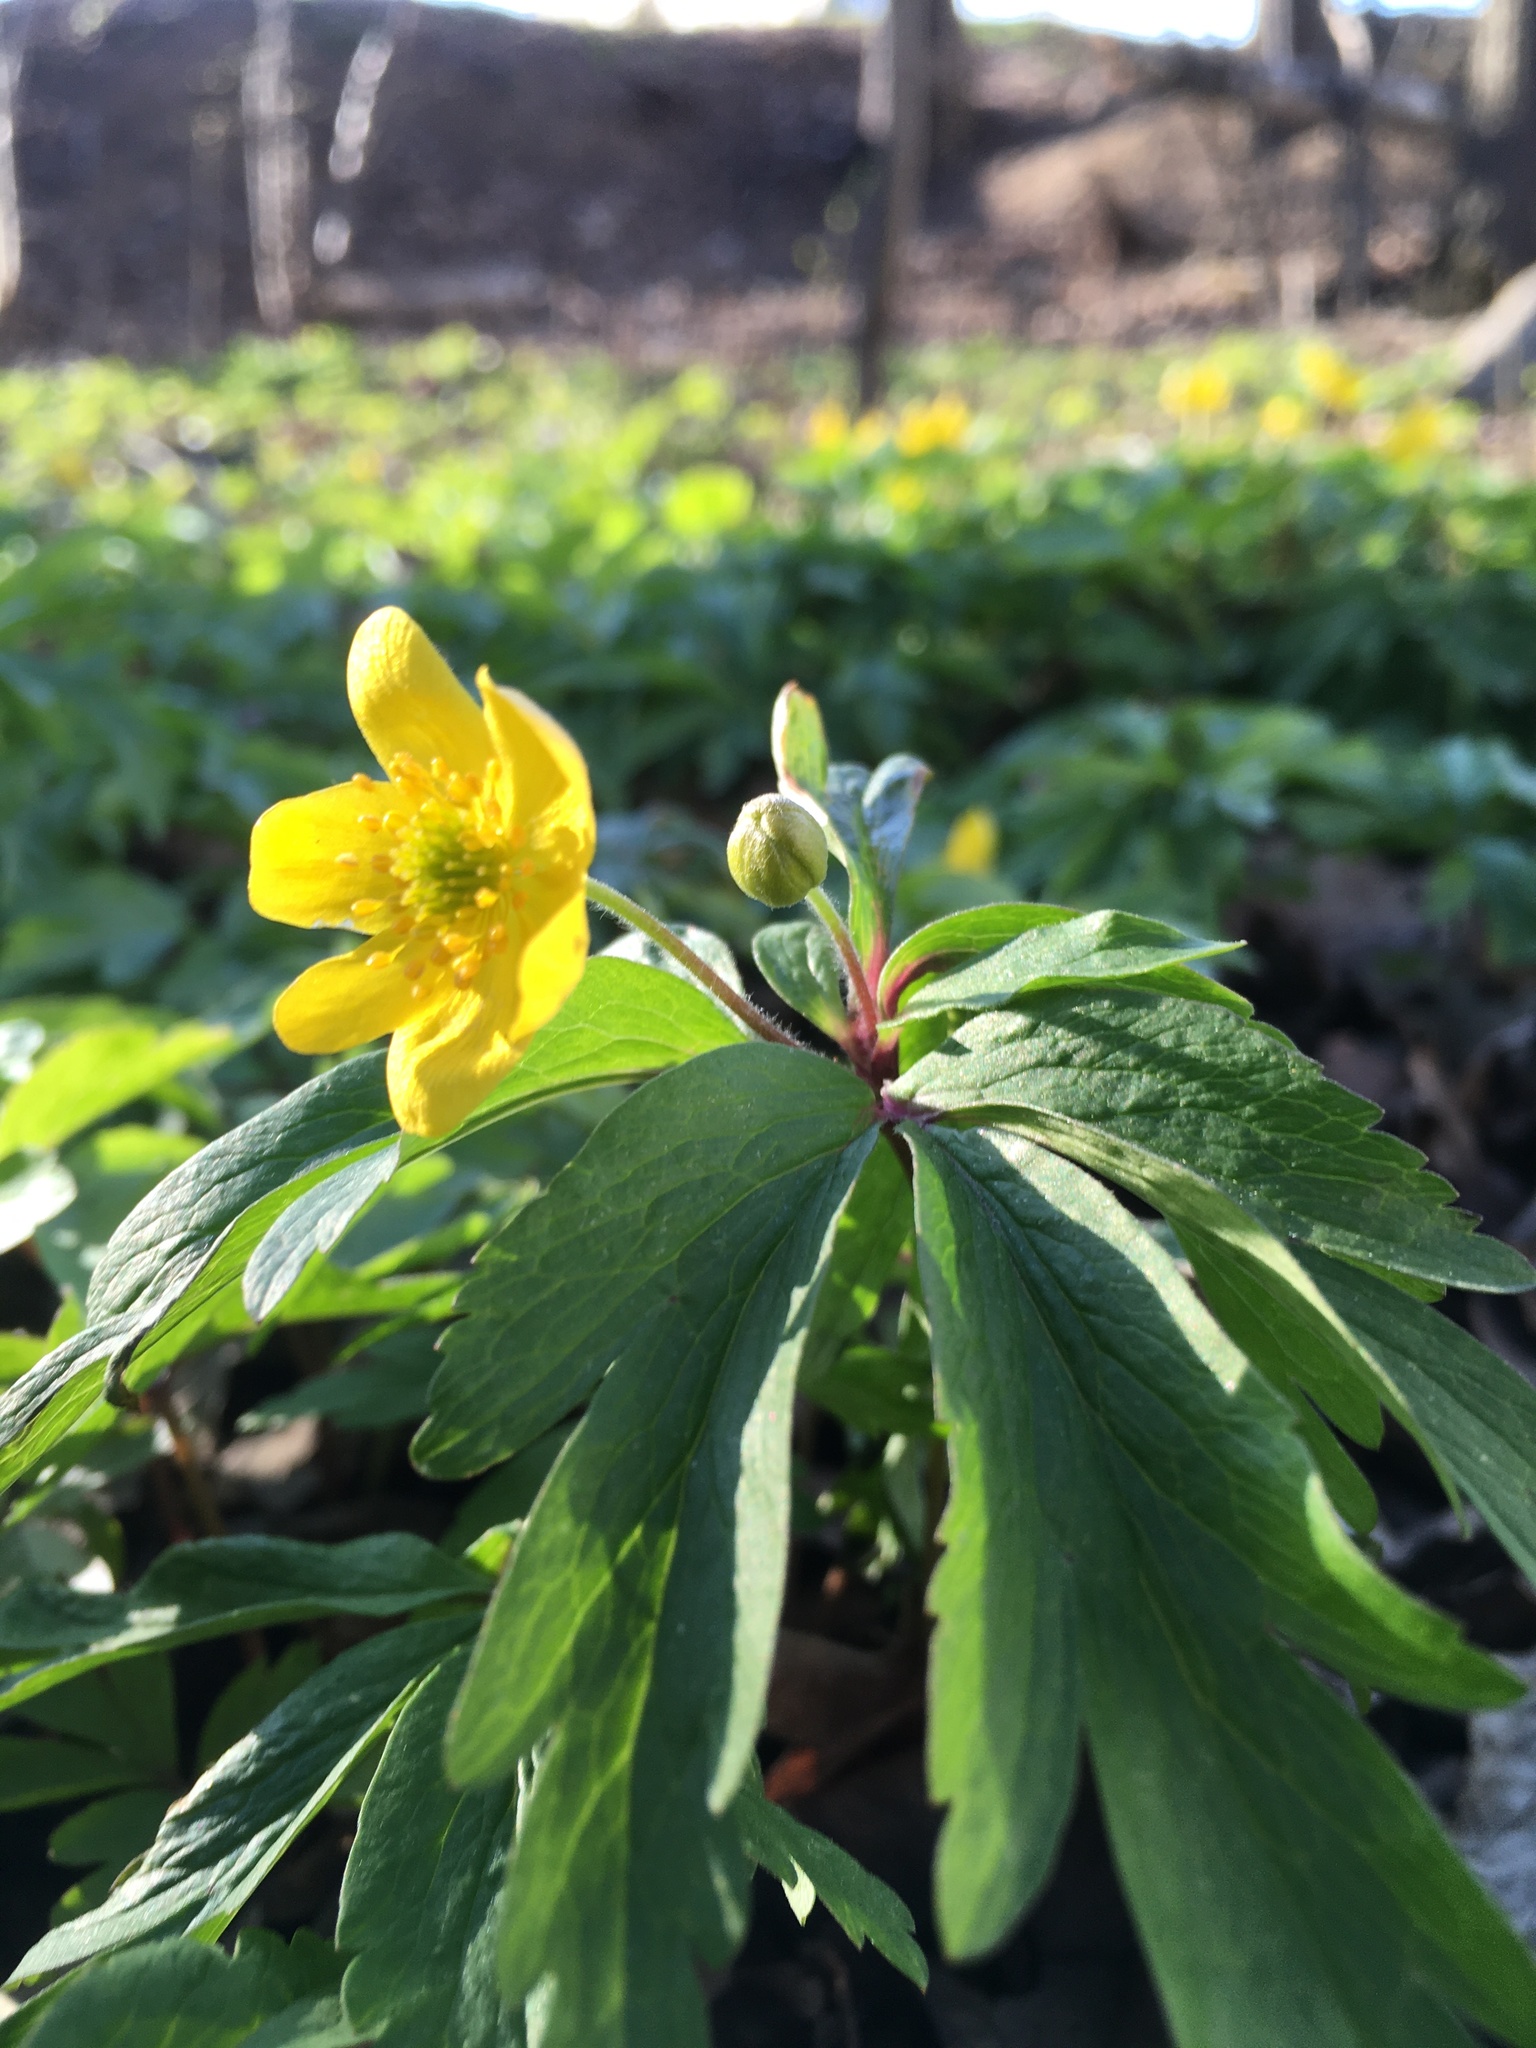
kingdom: Plantae
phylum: Tracheophyta
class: Magnoliopsida
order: Ranunculales
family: Ranunculaceae
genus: Anemone
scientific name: Anemone ranunculoides
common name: Yellow anemone
